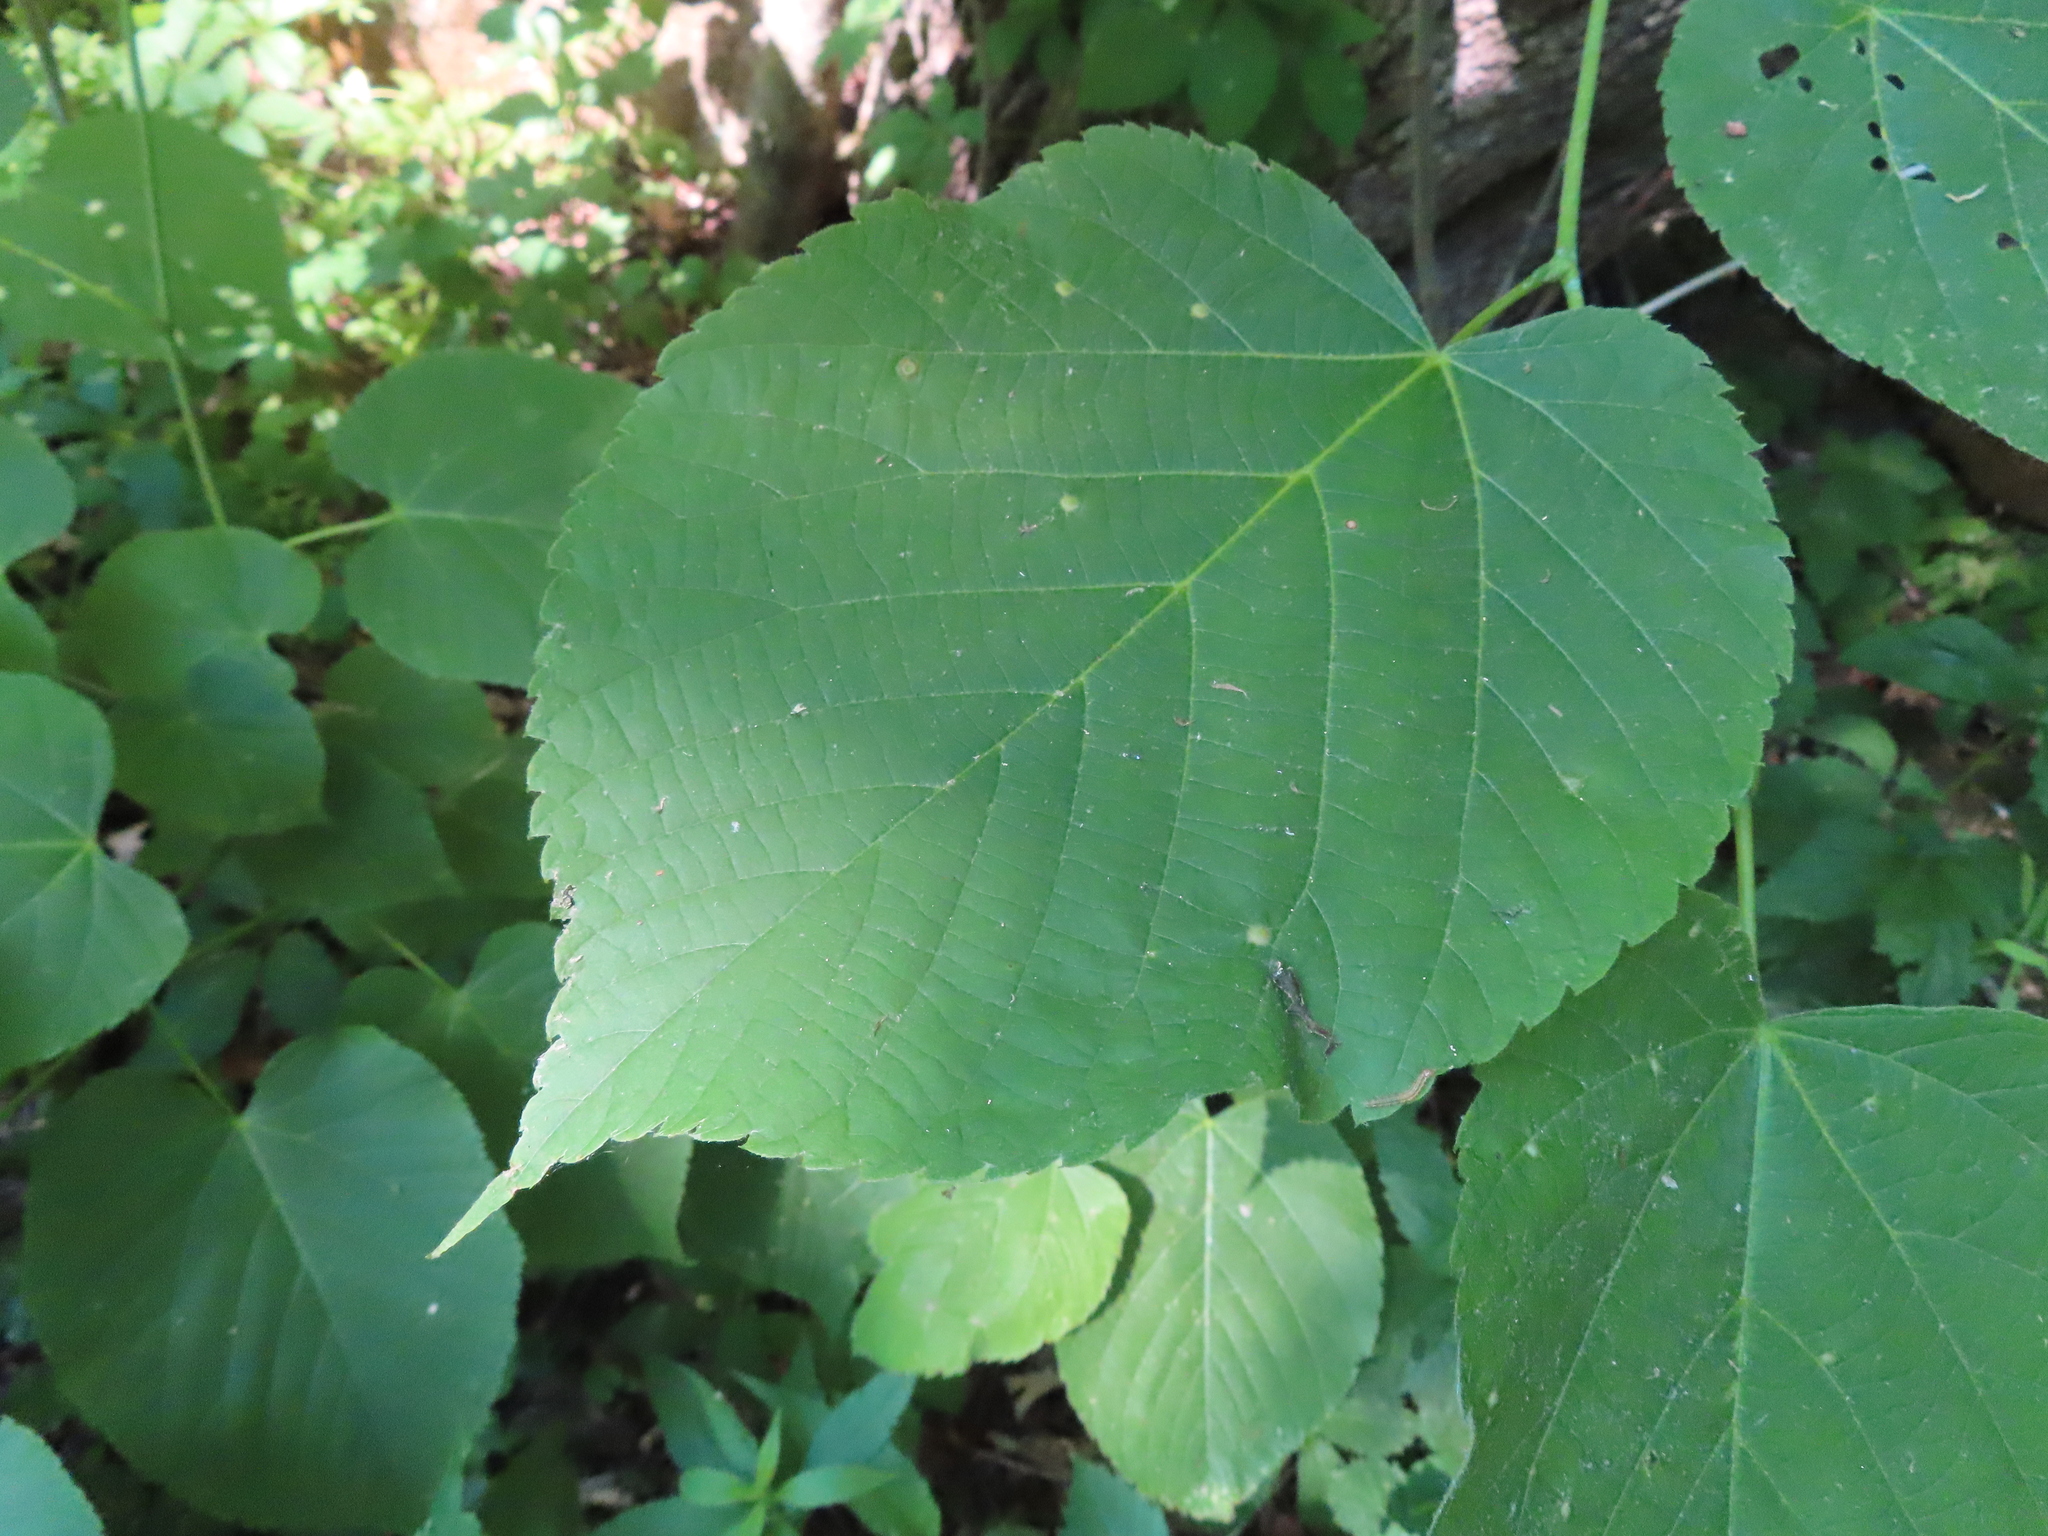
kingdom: Plantae
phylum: Tracheophyta
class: Magnoliopsida
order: Malvales
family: Malvaceae
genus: Tilia
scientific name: Tilia americana
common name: Basswood
